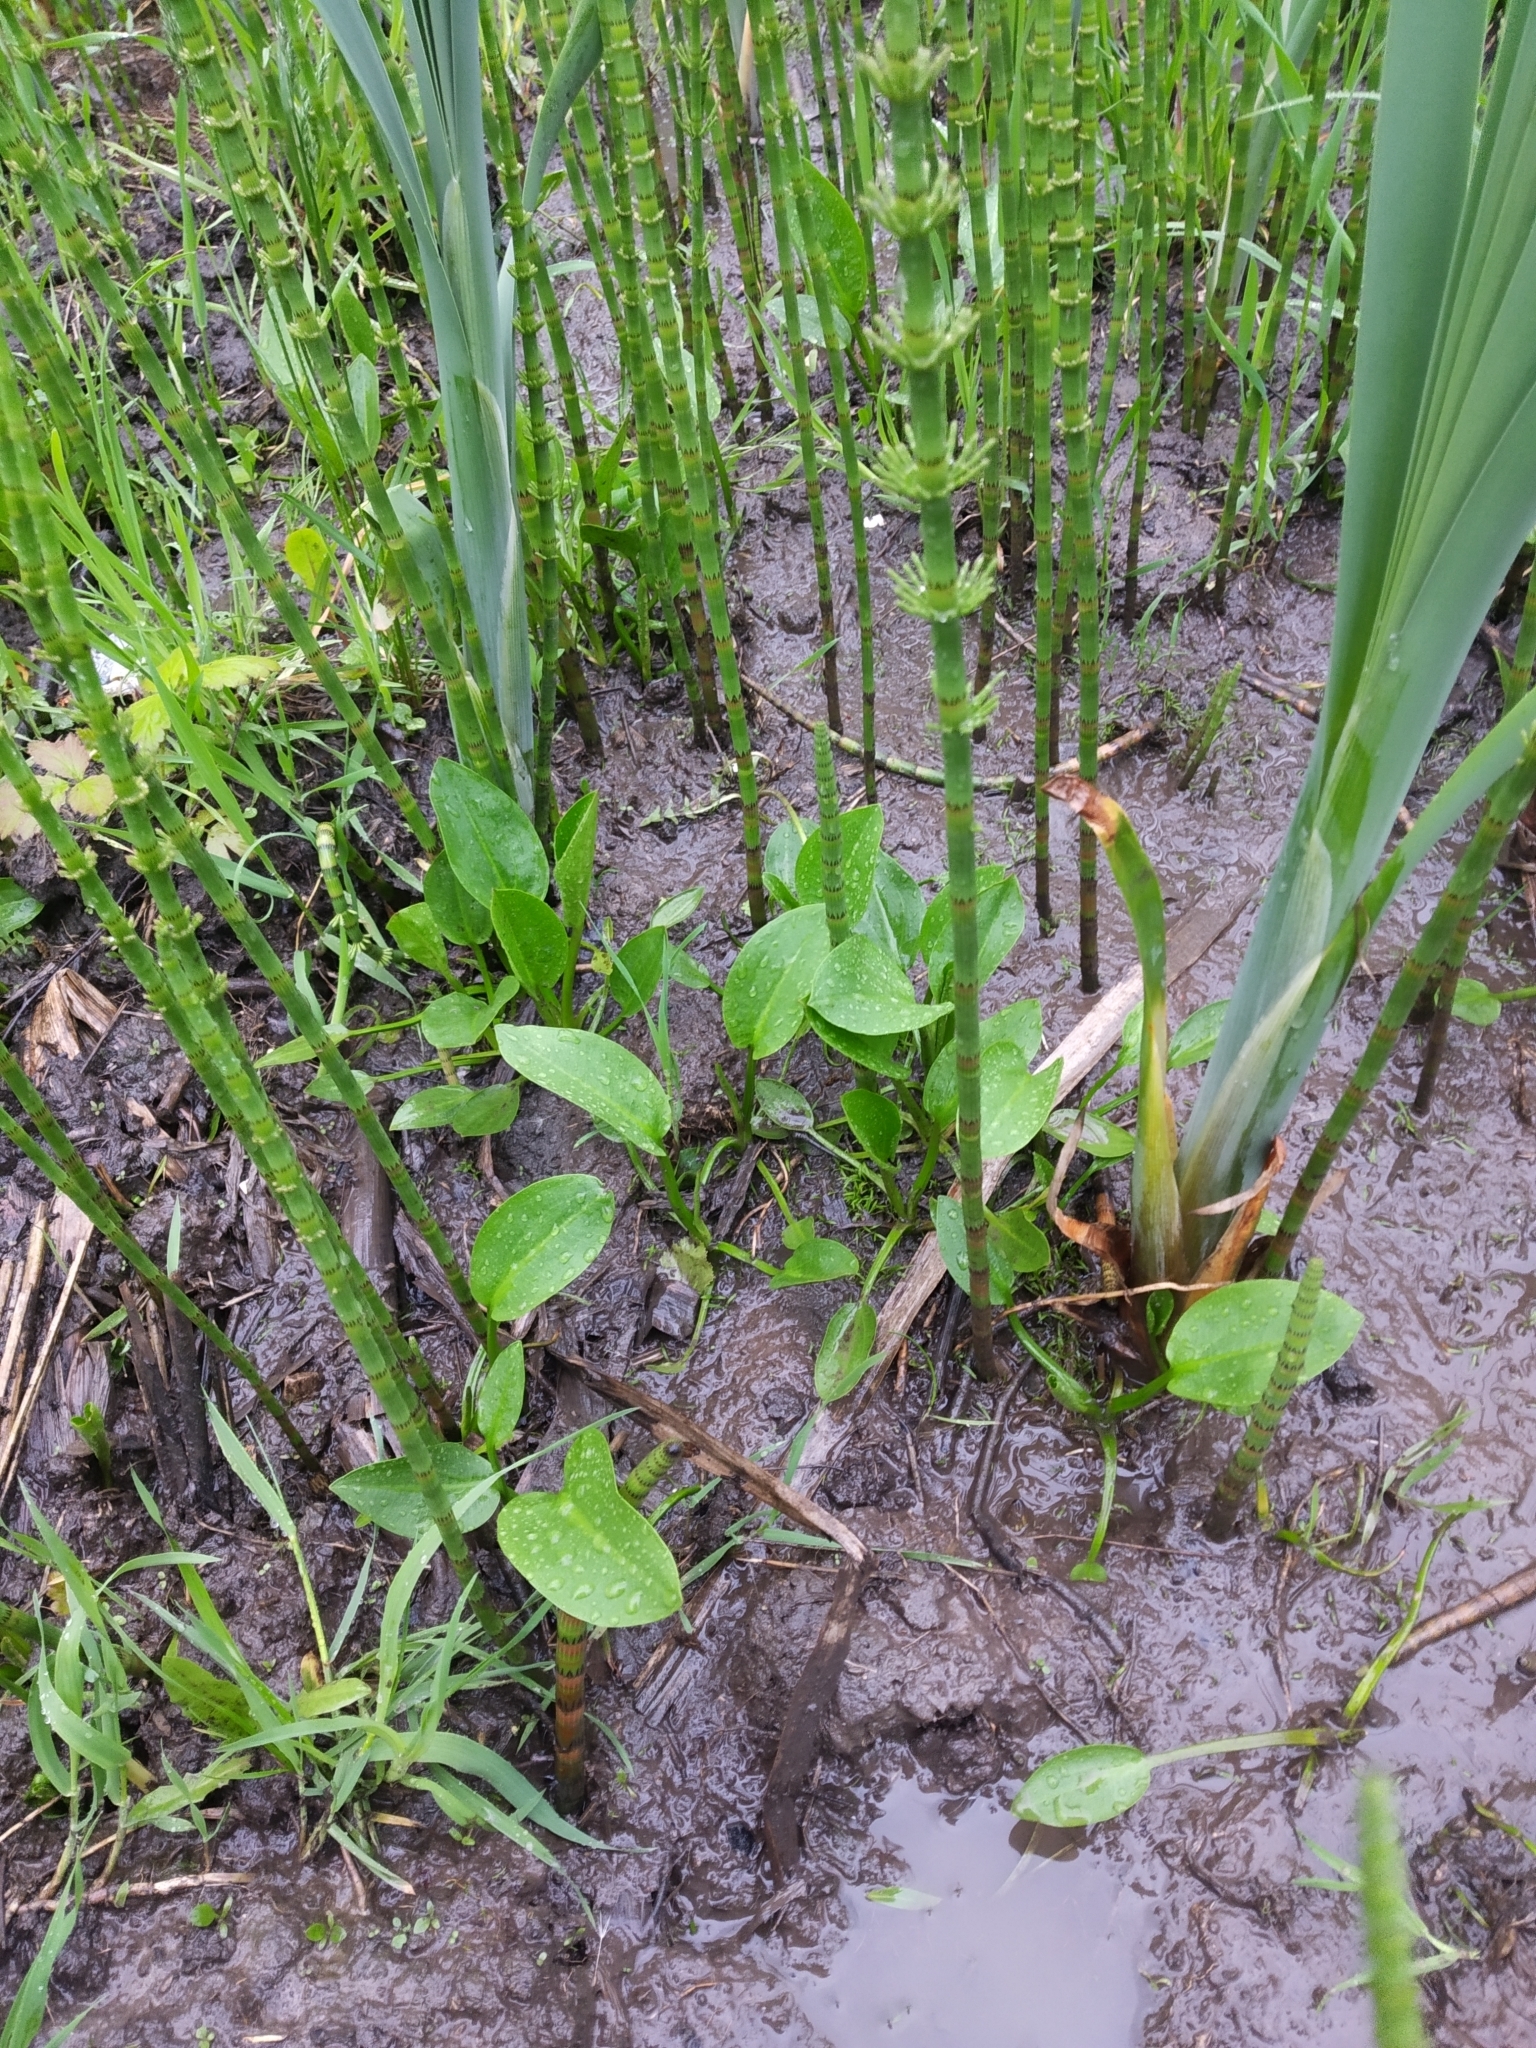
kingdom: Plantae
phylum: Tracheophyta
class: Liliopsida
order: Alismatales
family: Alismataceae
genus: Alisma
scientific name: Alisma plantago-aquatica
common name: Water-plantain
